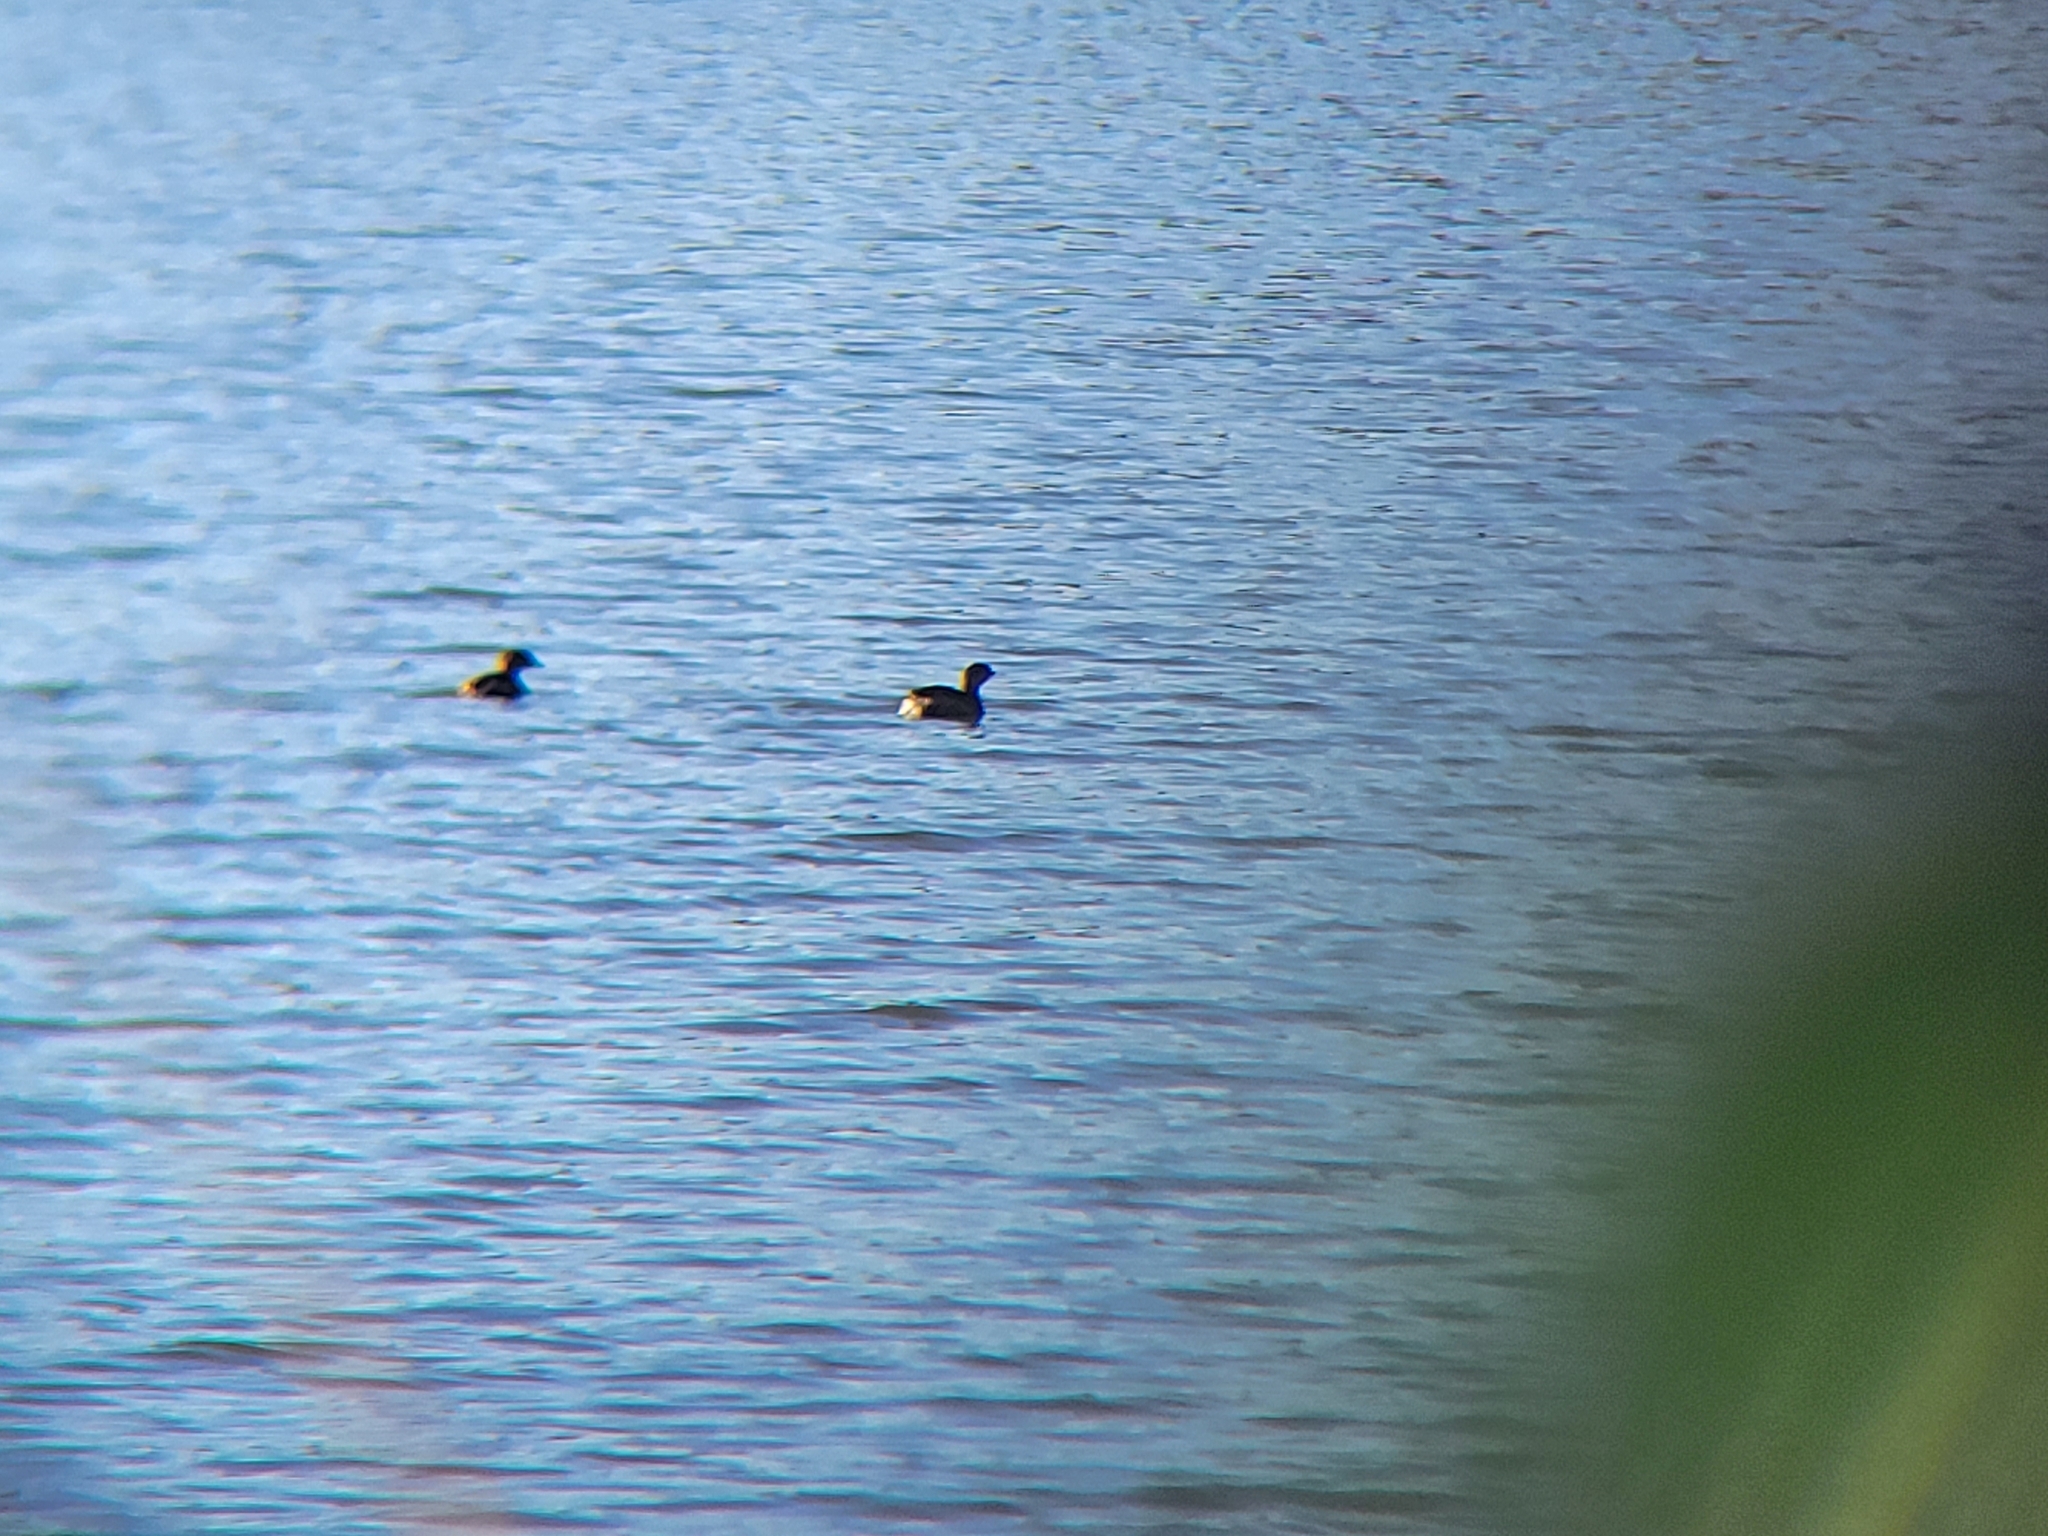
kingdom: Animalia
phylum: Chordata
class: Aves
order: Podicipediformes
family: Podicipedidae
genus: Podilymbus
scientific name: Podilymbus podiceps
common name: Pied-billed grebe
